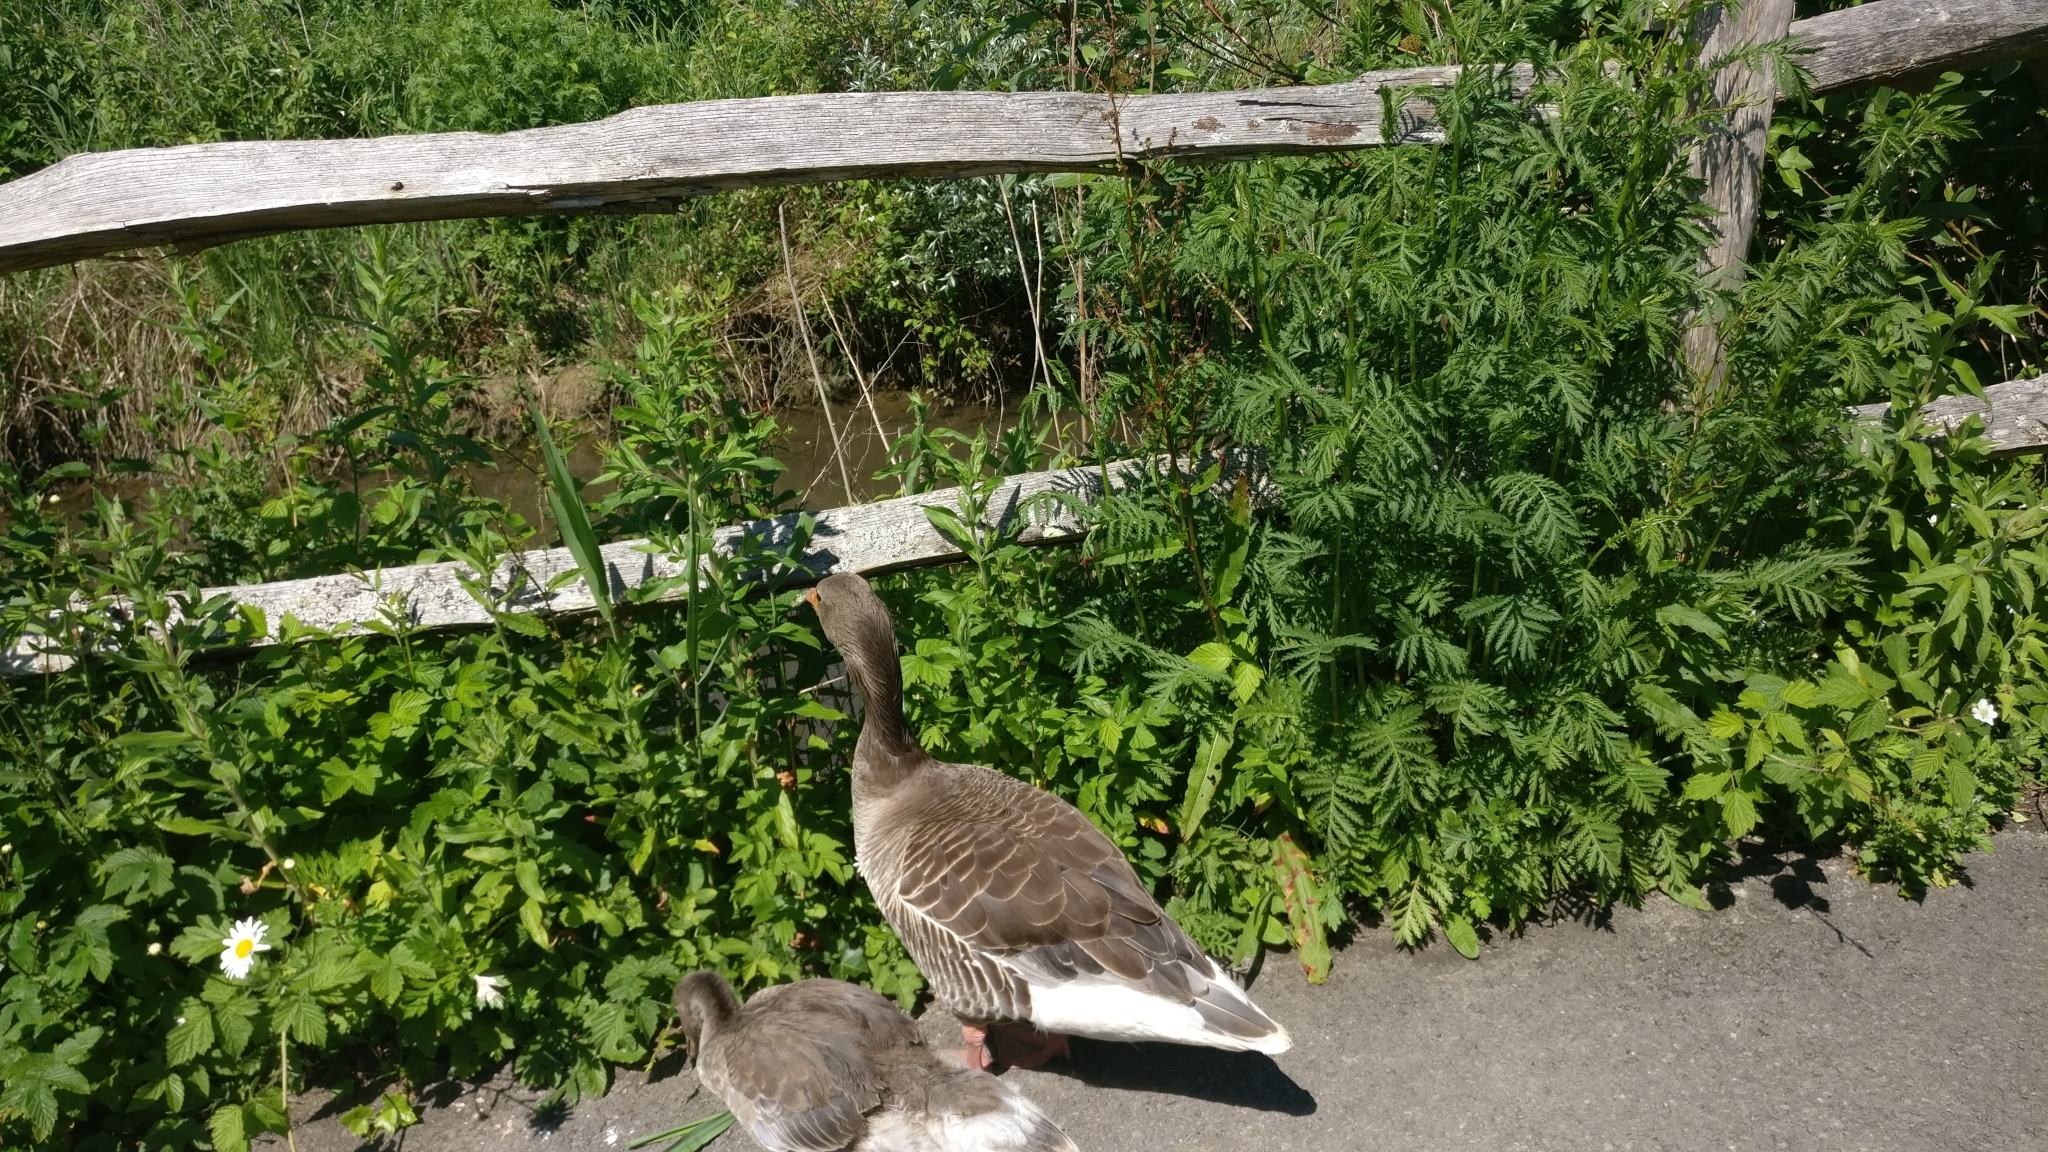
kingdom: Animalia
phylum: Chordata
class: Aves
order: Anseriformes
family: Anatidae
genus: Anser
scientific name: Anser anser
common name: Greylag goose
